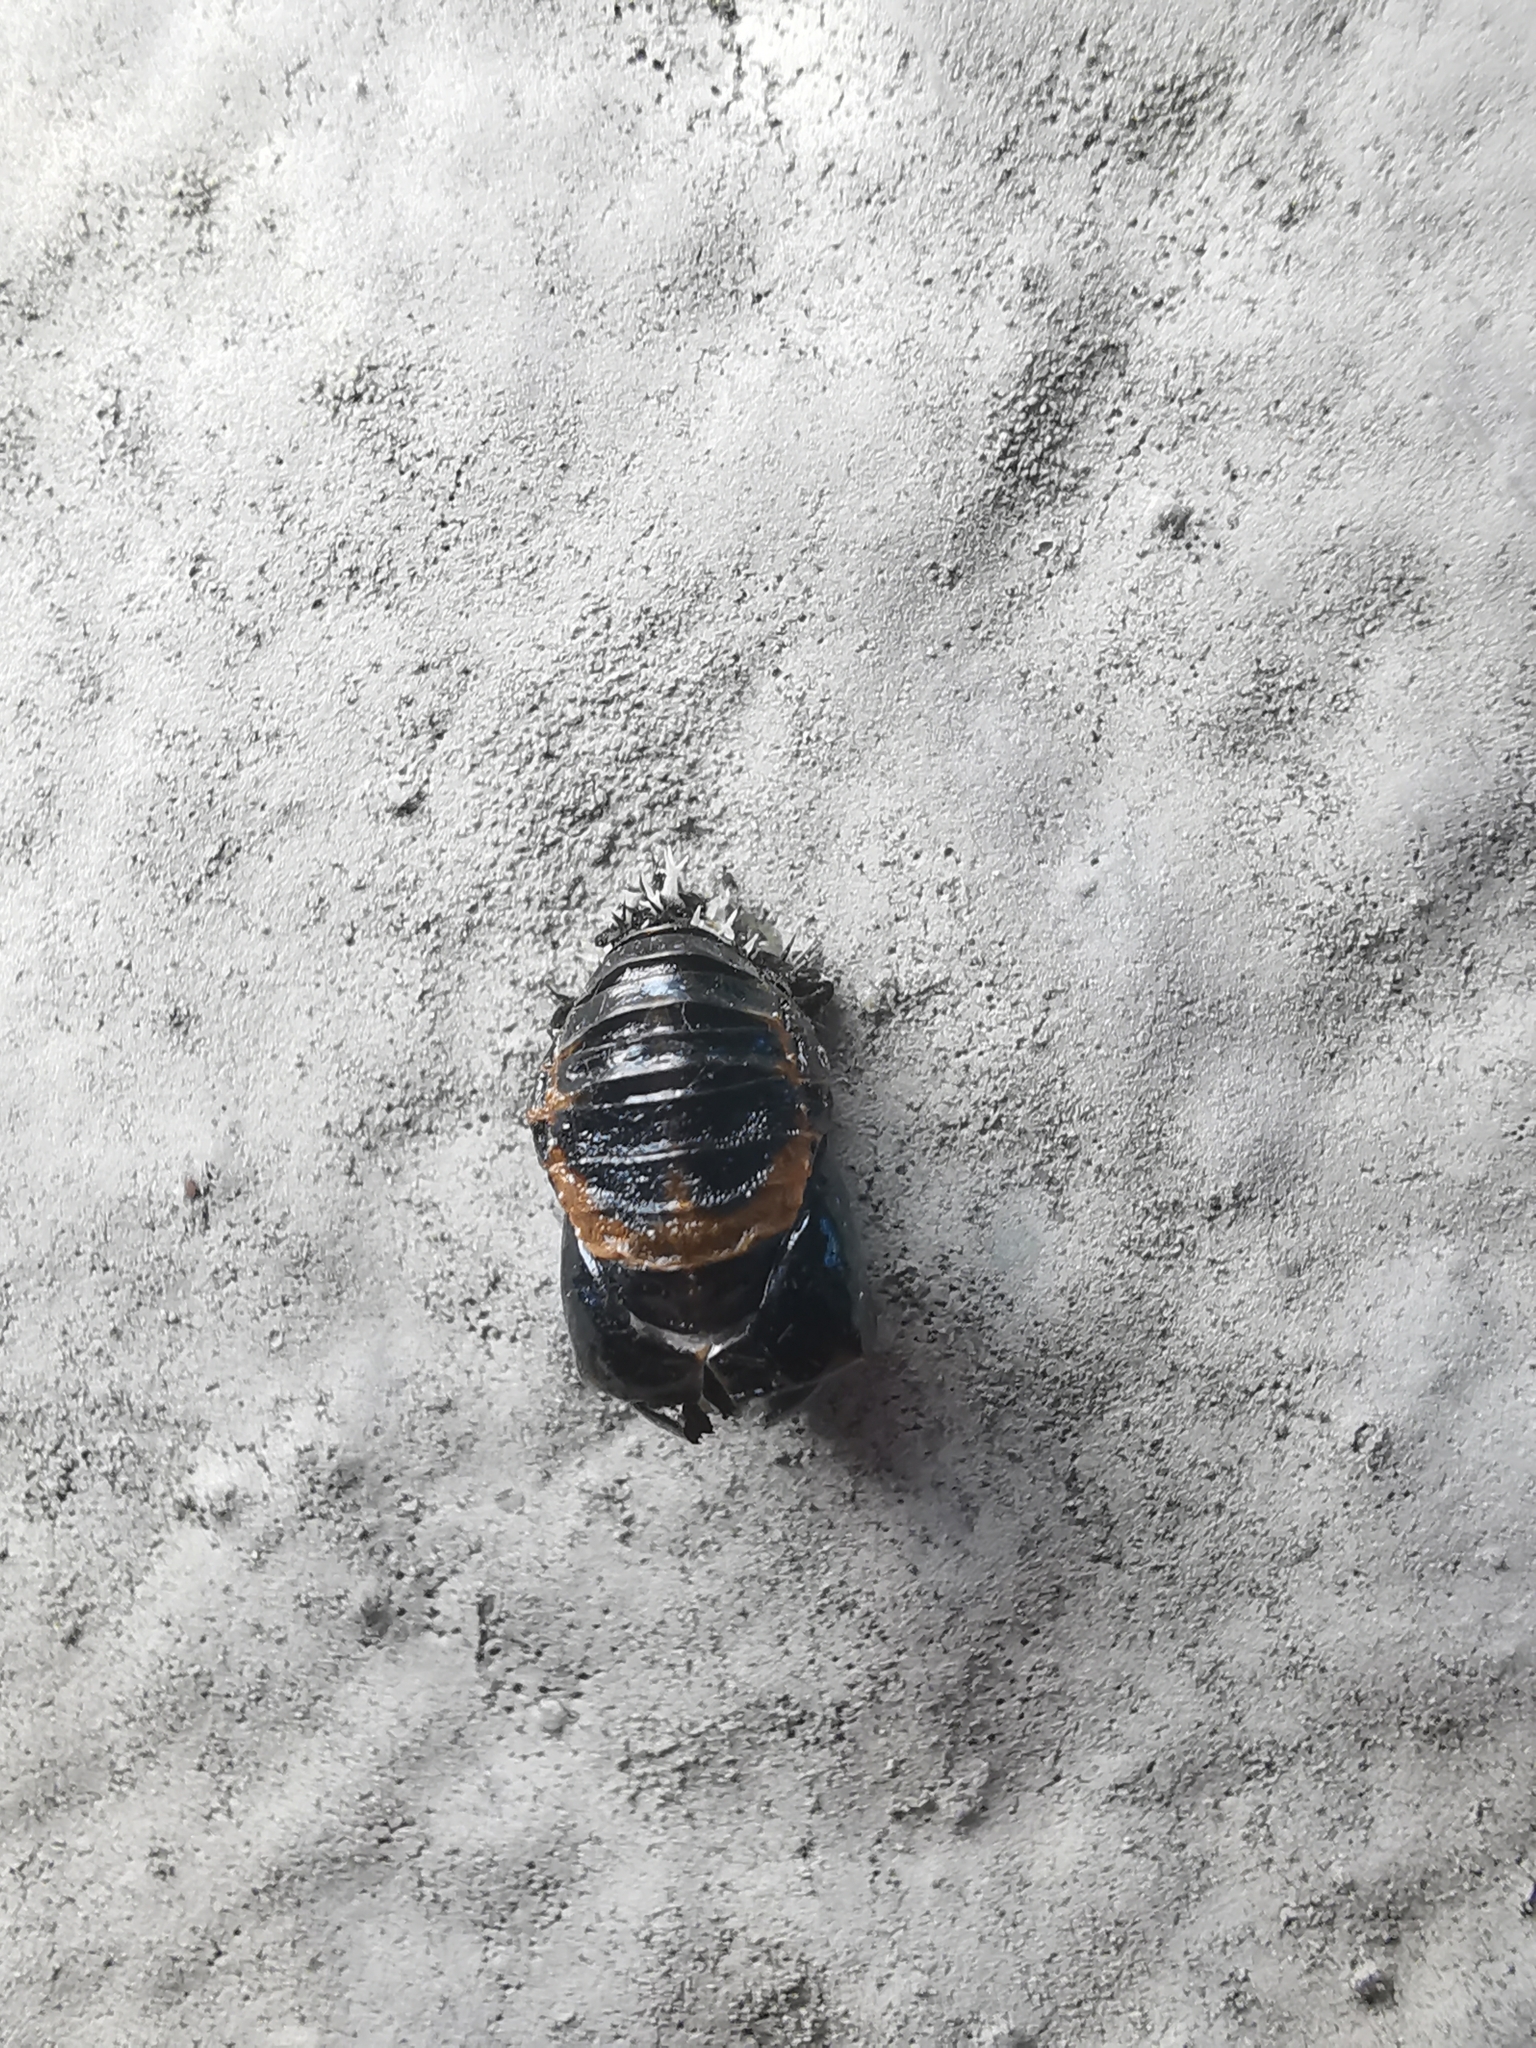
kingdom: Animalia
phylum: Arthropoda
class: Insecta
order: Coleoptera
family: Coccinellidae
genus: Harmonia
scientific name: Harmonia axyridis
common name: Harlequin ladybird
